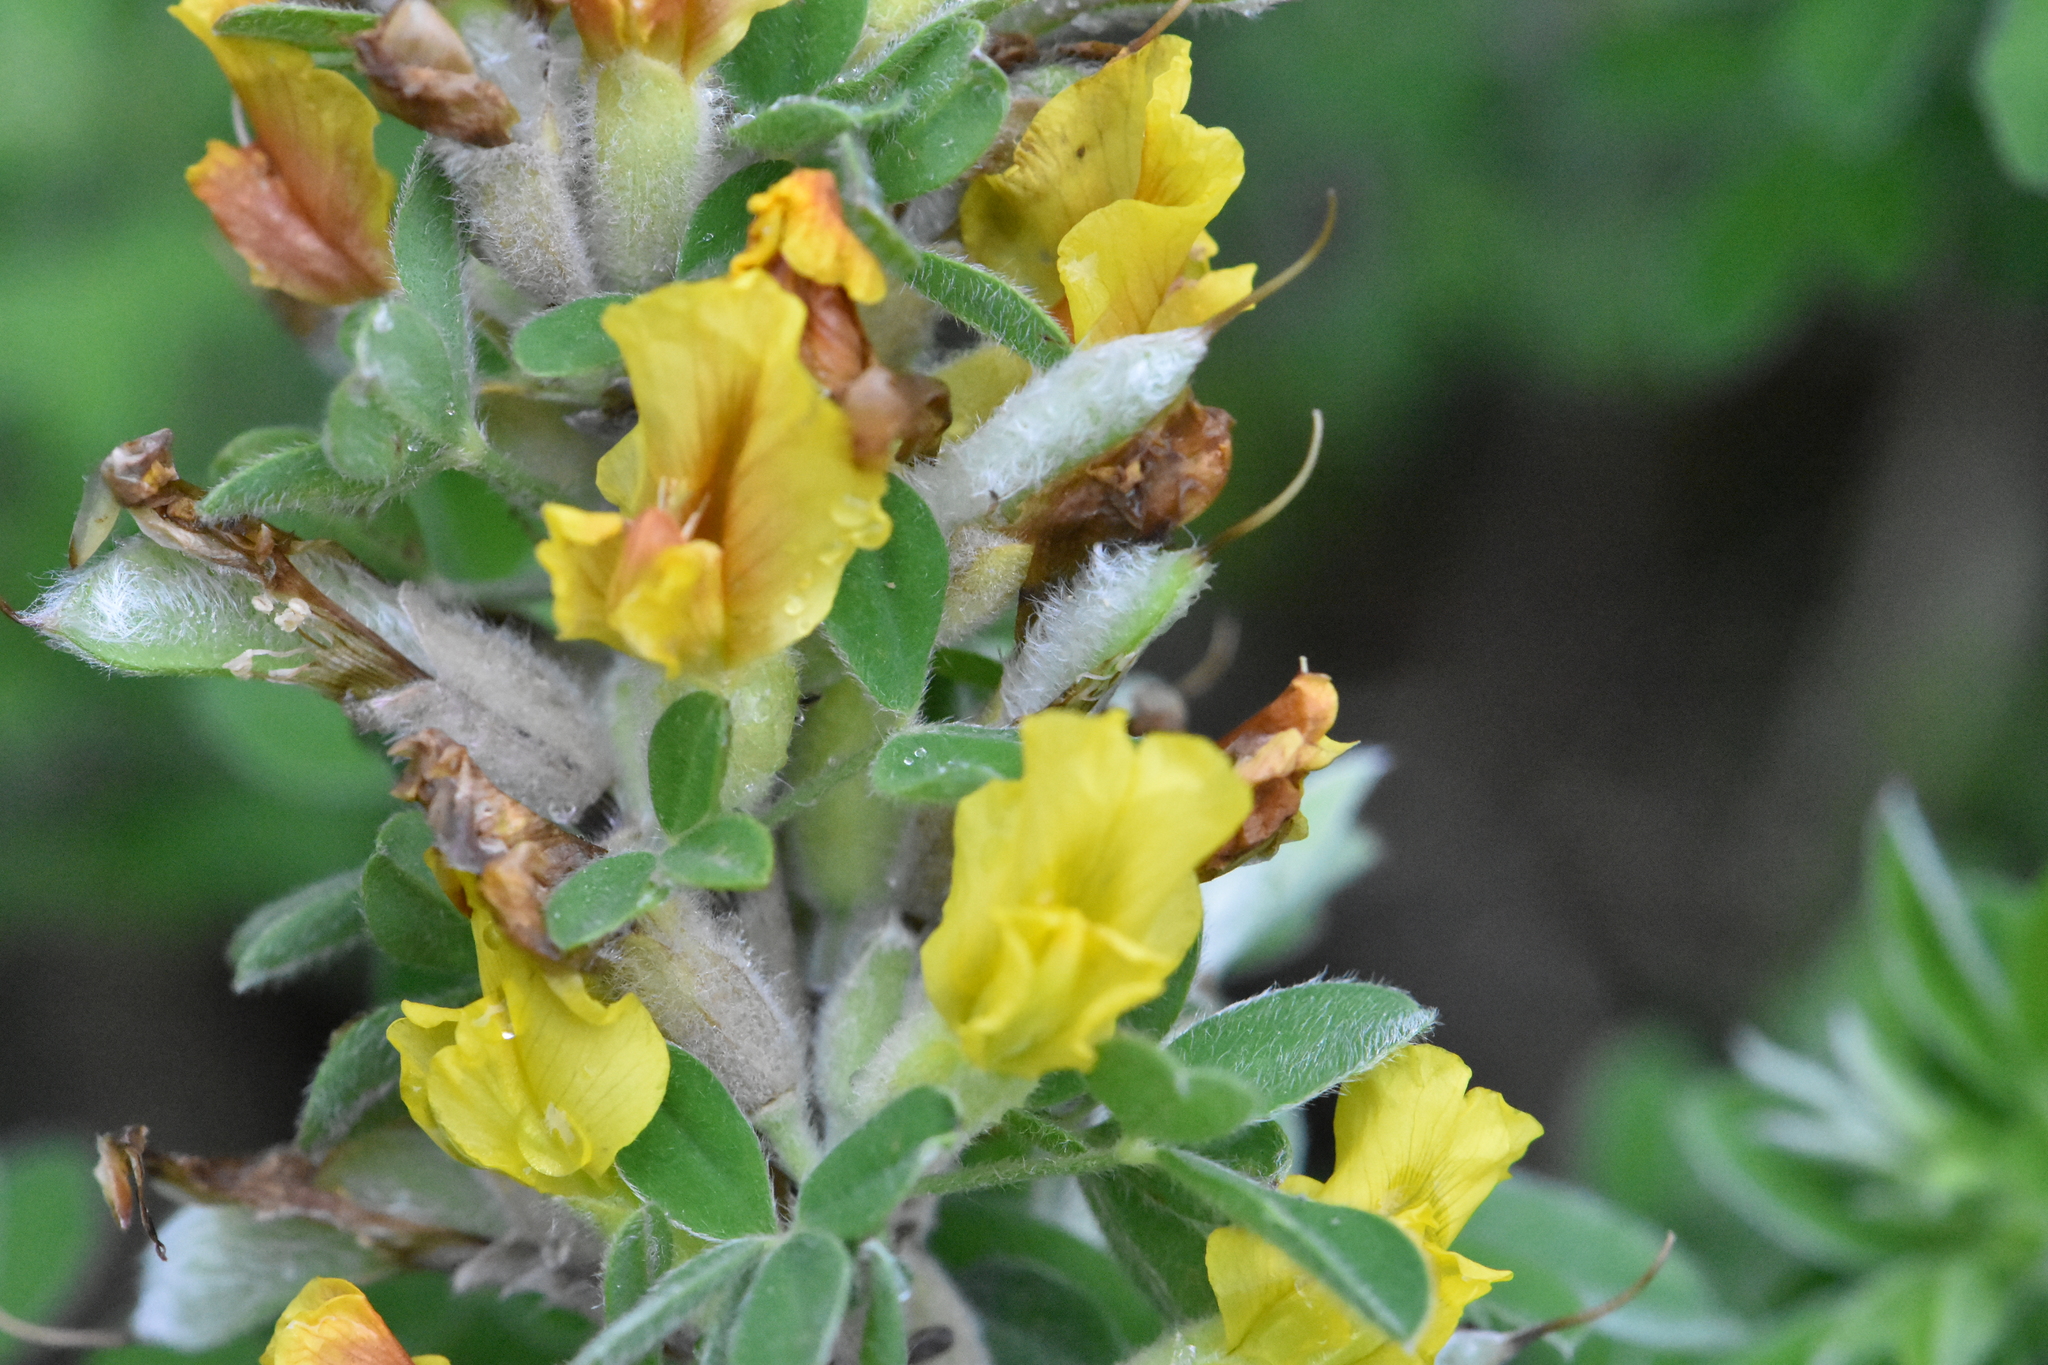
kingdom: Plantae
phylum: Tracheophyta
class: Magnoliopsida
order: Fabales
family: Fabaceae
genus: Chamaecytisus
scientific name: Chamaecytisus ruthenicus
